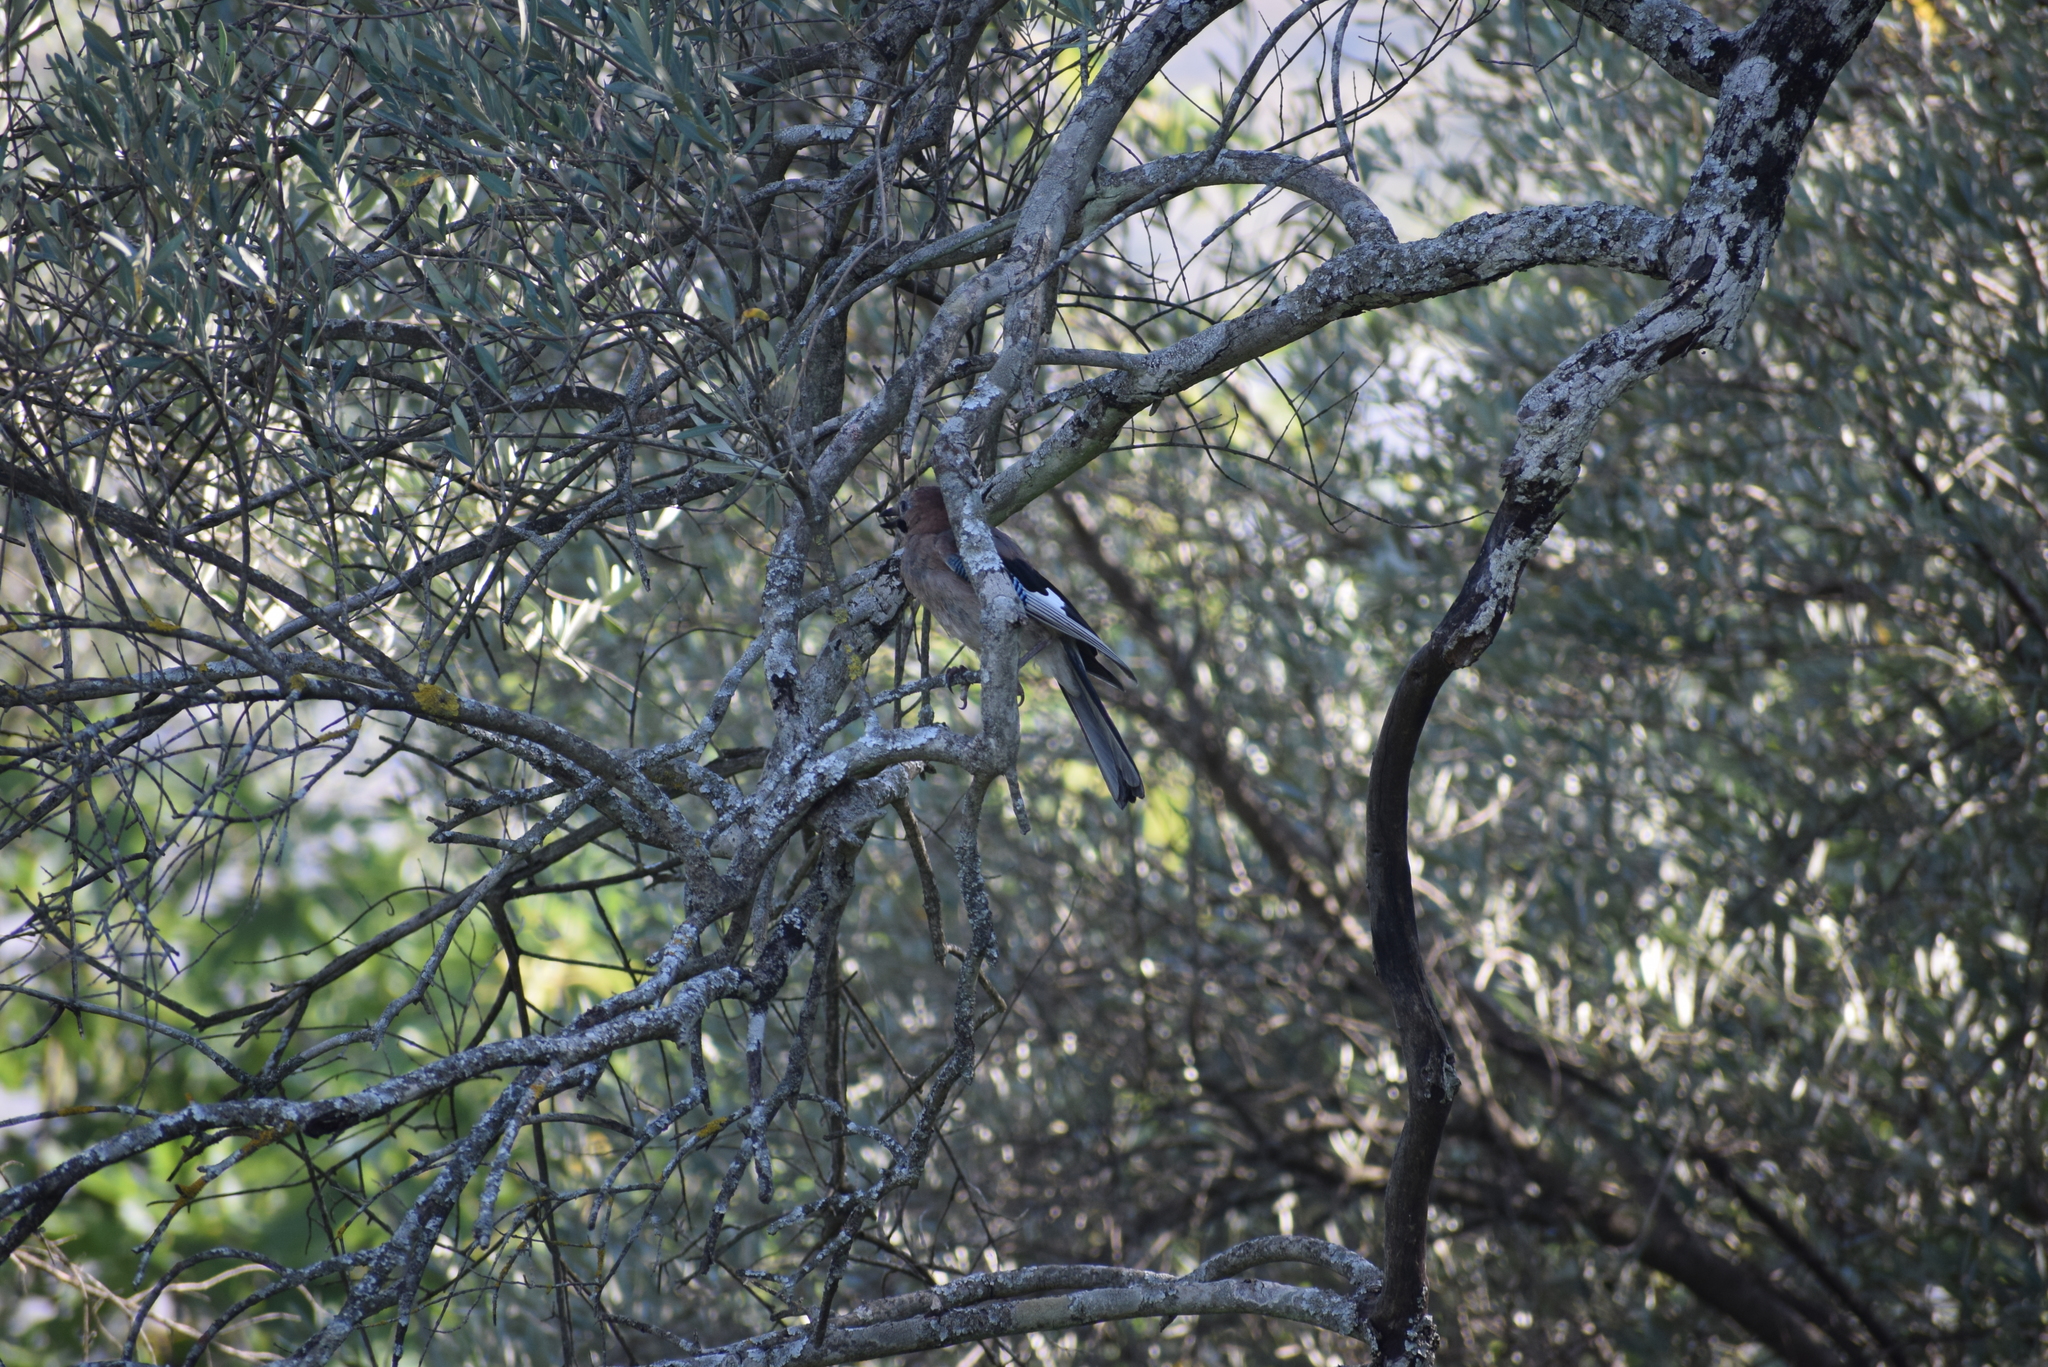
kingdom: Animalia
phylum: Chordata
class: Aves
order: Passeriformes
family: Corvidae
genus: Garrulus
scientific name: Garrulus glandarius
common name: Eurasian jay
